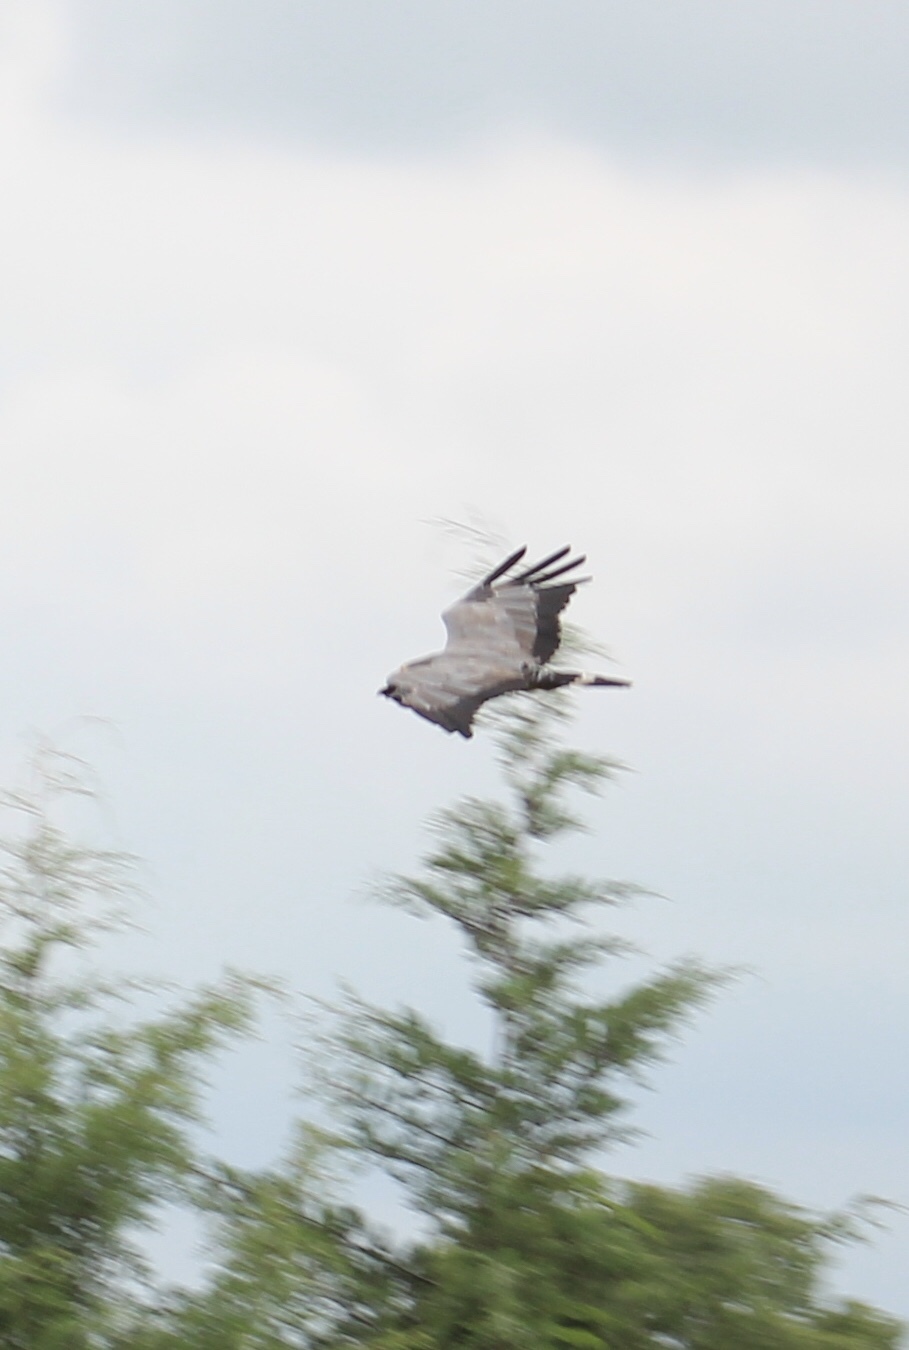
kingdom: Animalia
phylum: Chordata
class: Aves
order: Accipitriformes
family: Accipitridae
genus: Polyboroides
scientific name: Polyboroides typus
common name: African harrier-hawk
